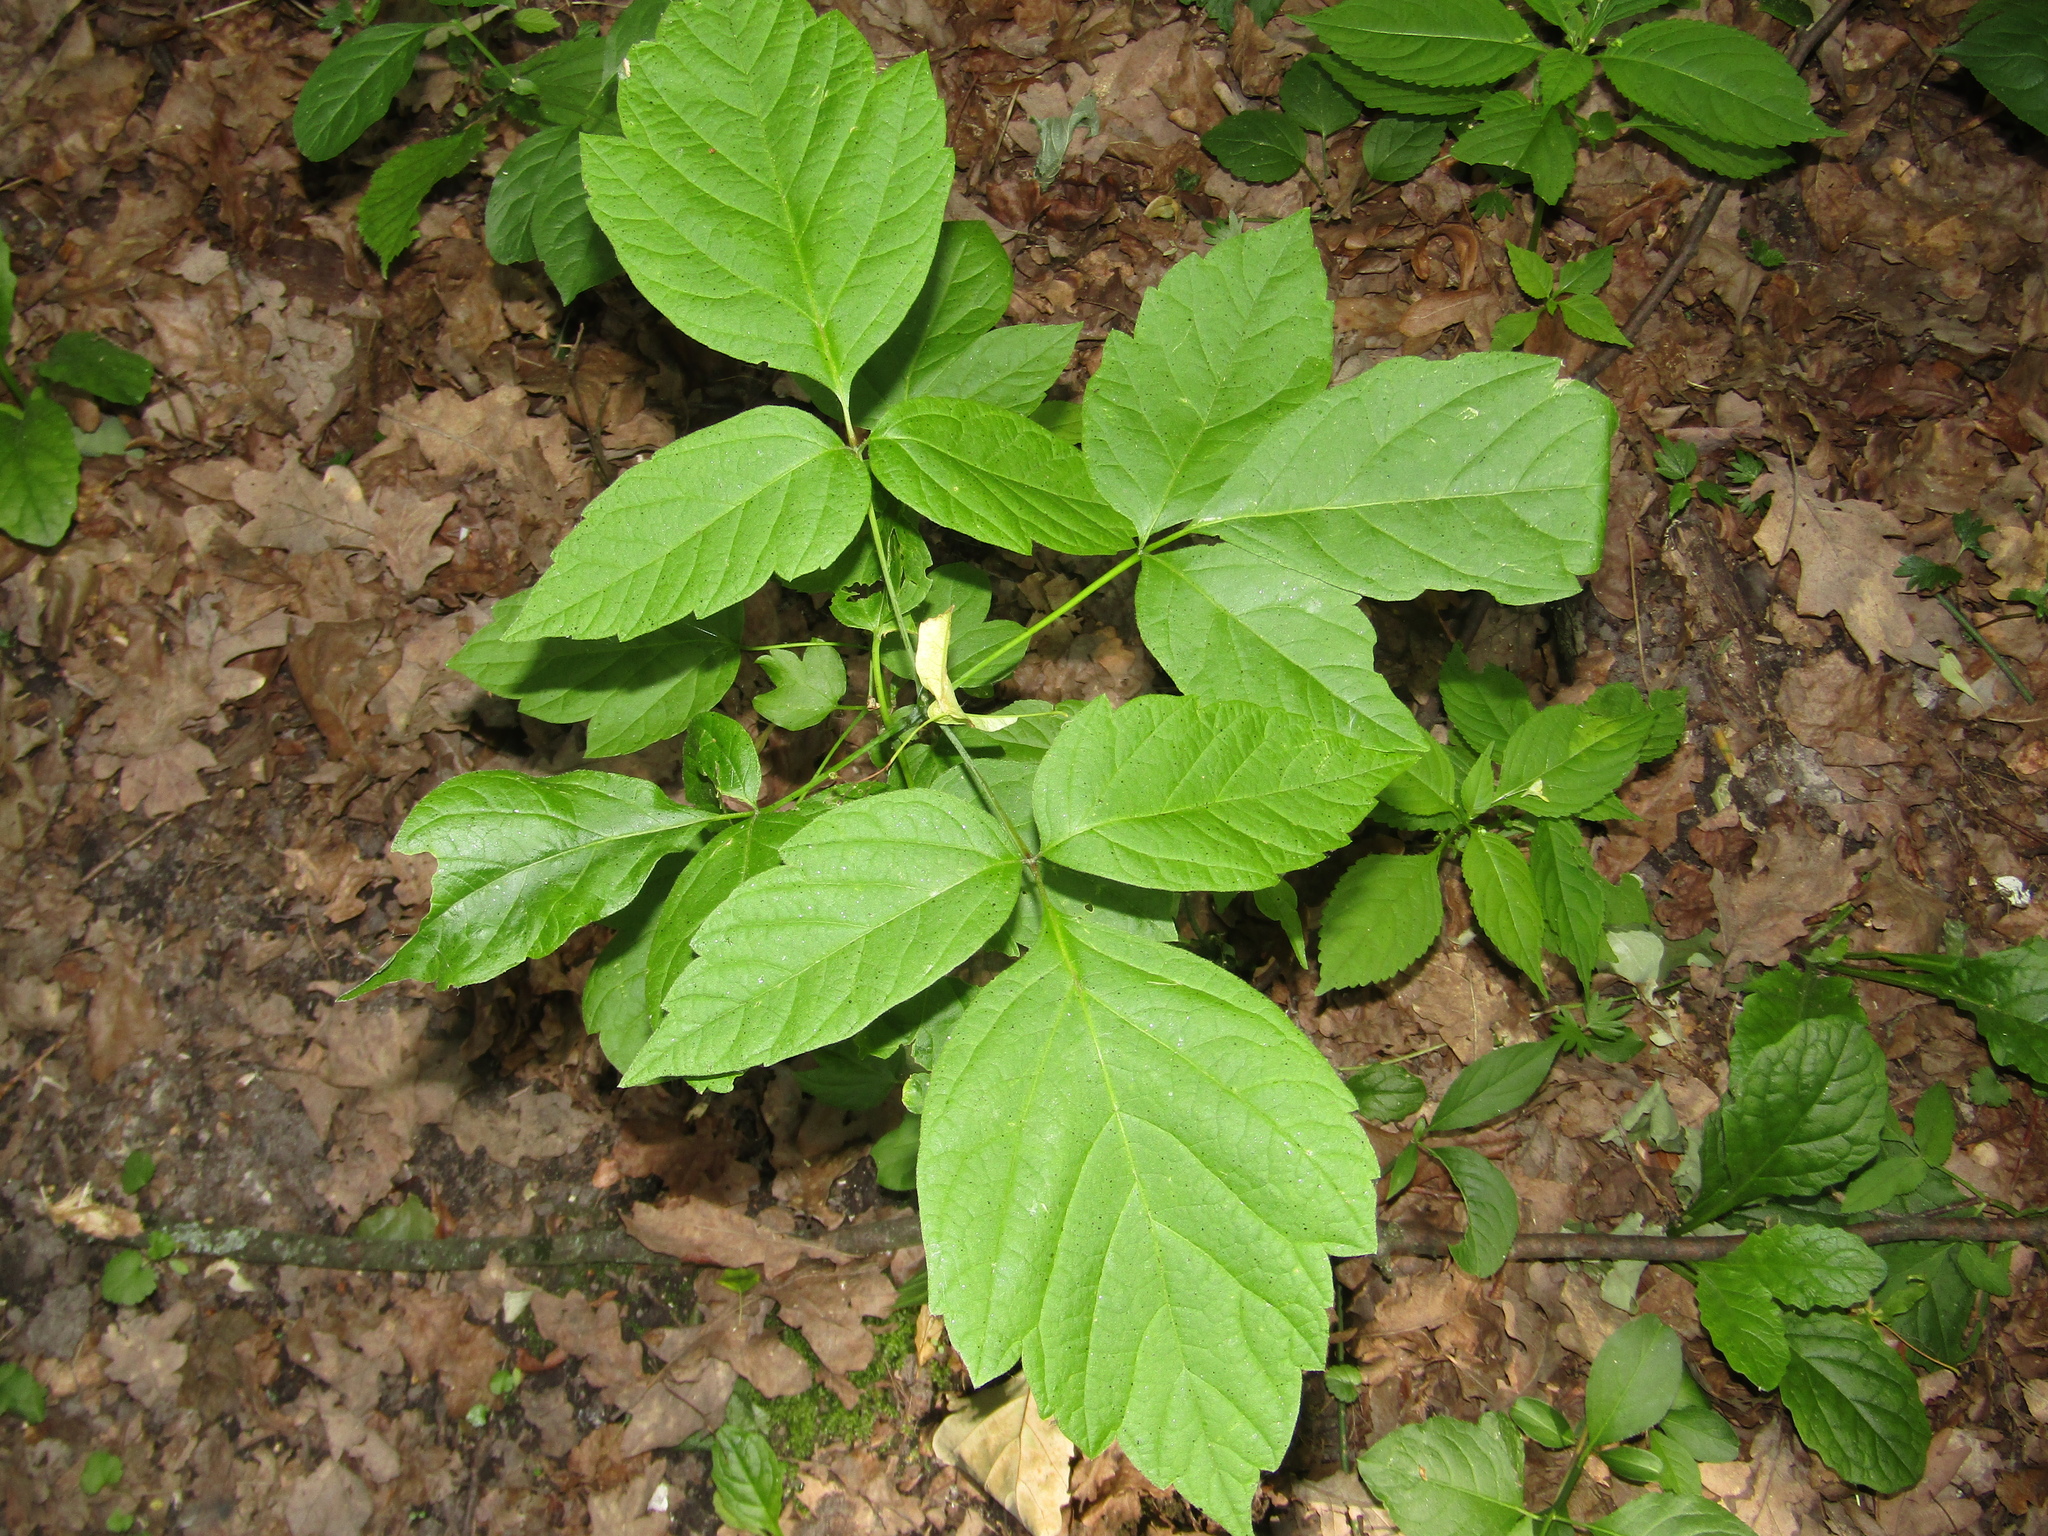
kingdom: Plantae
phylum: Tracheophyta
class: Magnoliopsida
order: Sapindales
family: Sapindaceae
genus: Acer
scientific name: Acer negundo
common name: Ashleaf maple
